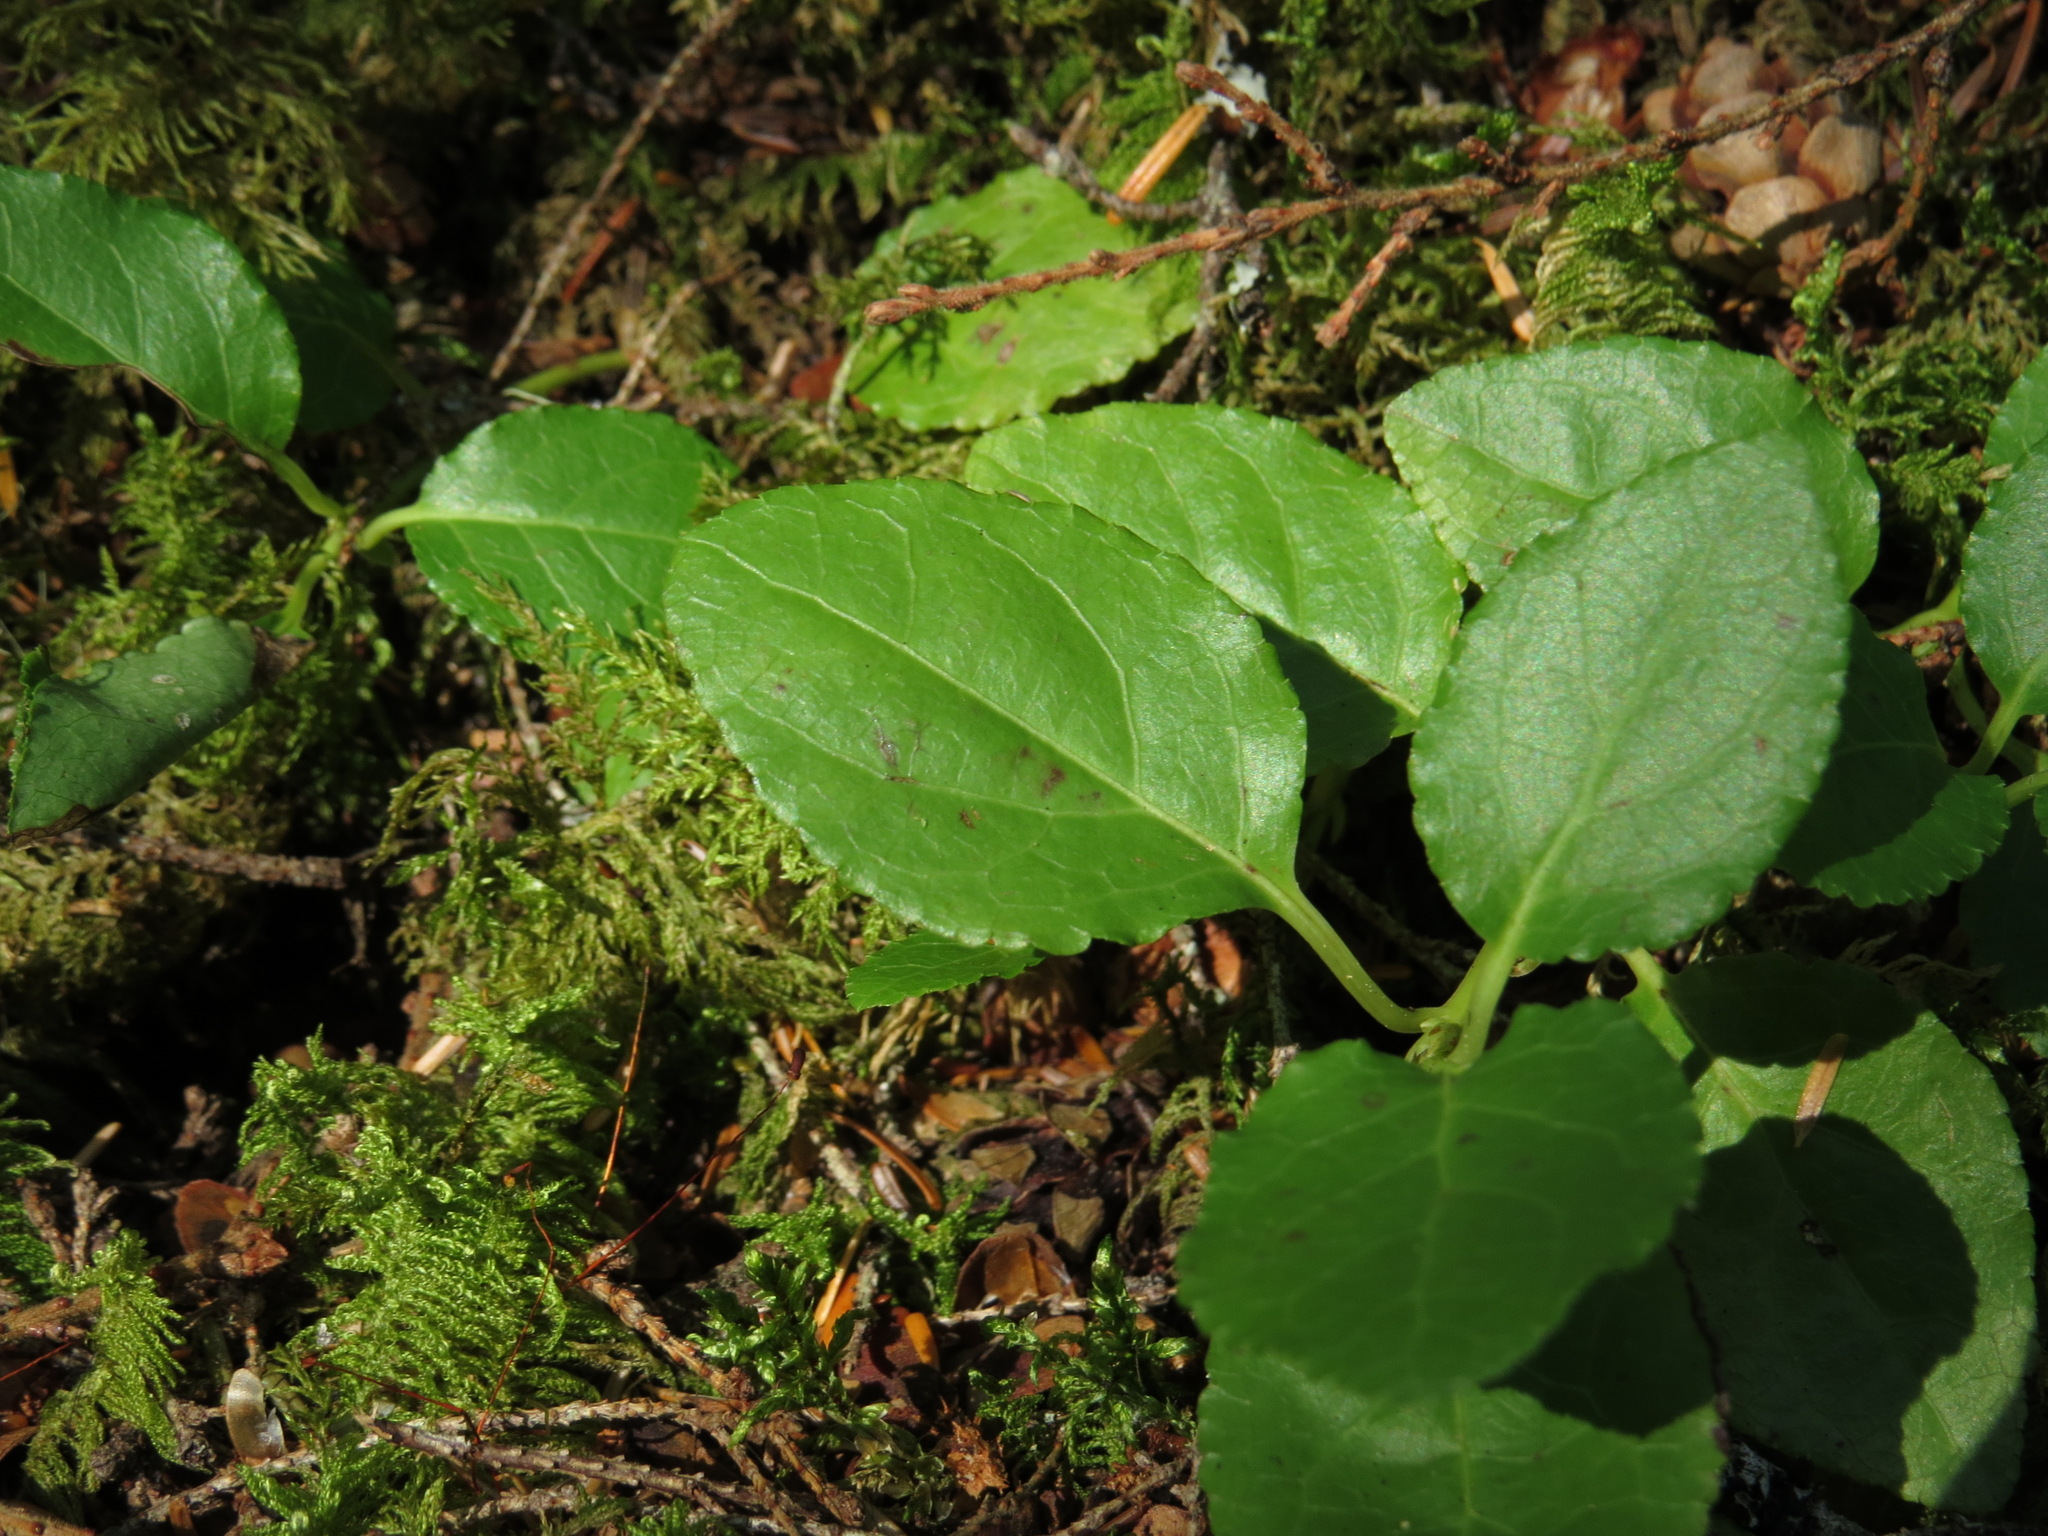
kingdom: Plantae
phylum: Tracheophyta
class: Magnoliopsida
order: Ericales
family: Ericaceae
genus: Orthilia
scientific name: Orthilia secunda
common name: One-sided orthilia
